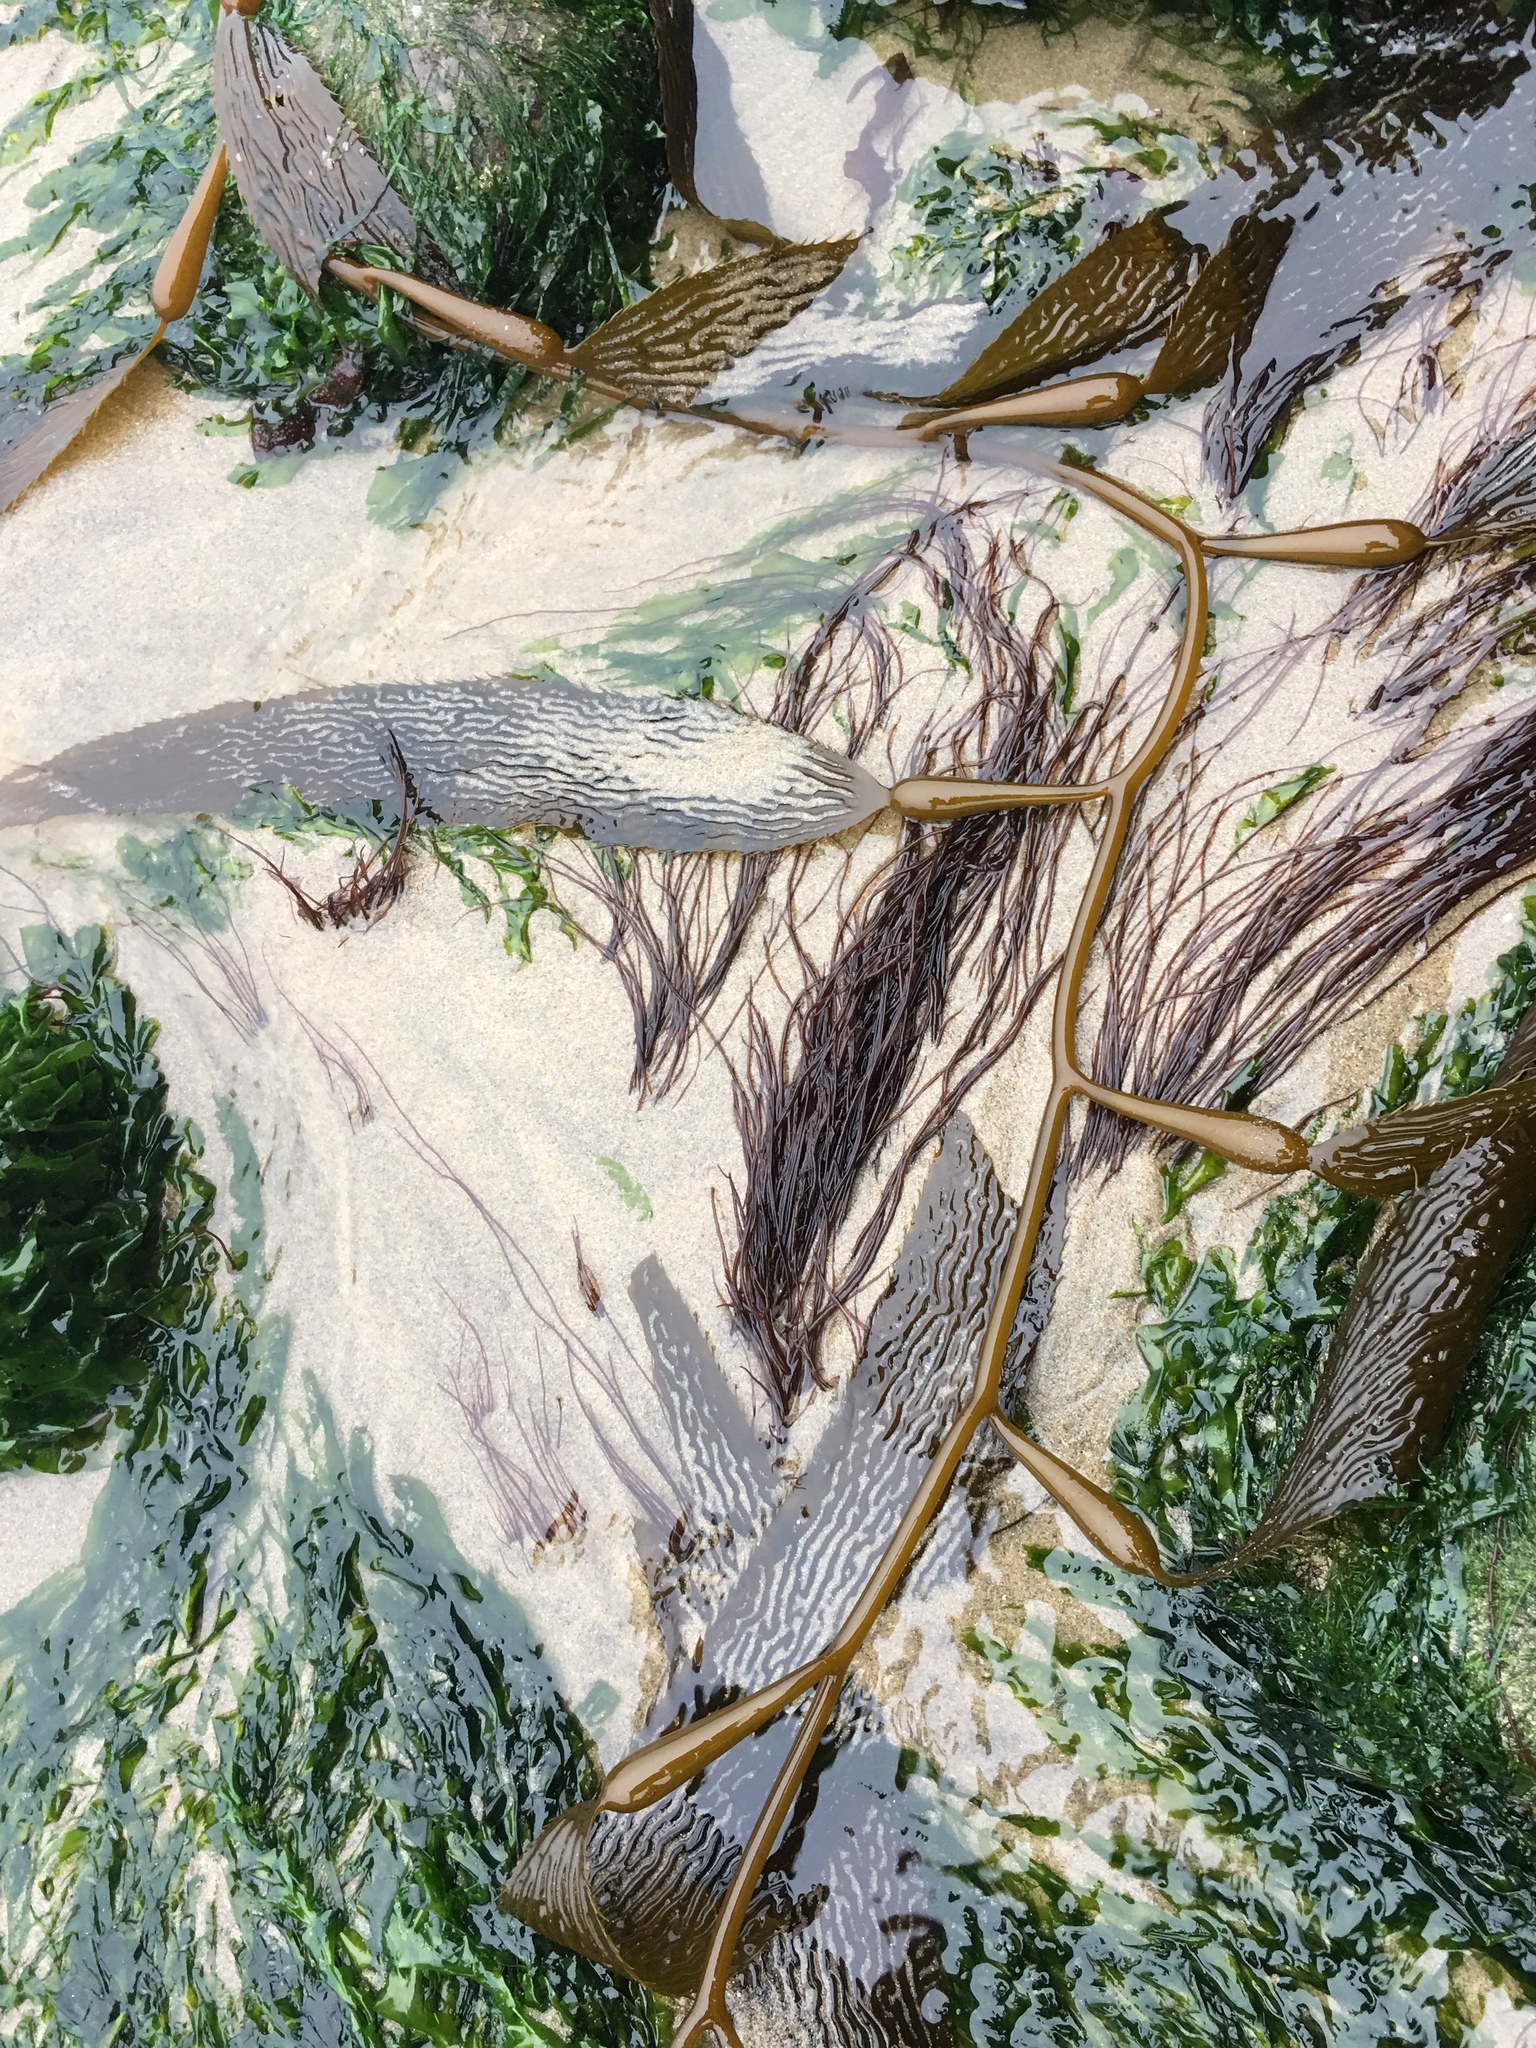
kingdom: Chromista
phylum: Ochrophyta
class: Phaeophyceae
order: Laminariales
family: Laminariaceae
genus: Macrocystis
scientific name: Macrocystis pyrifera
